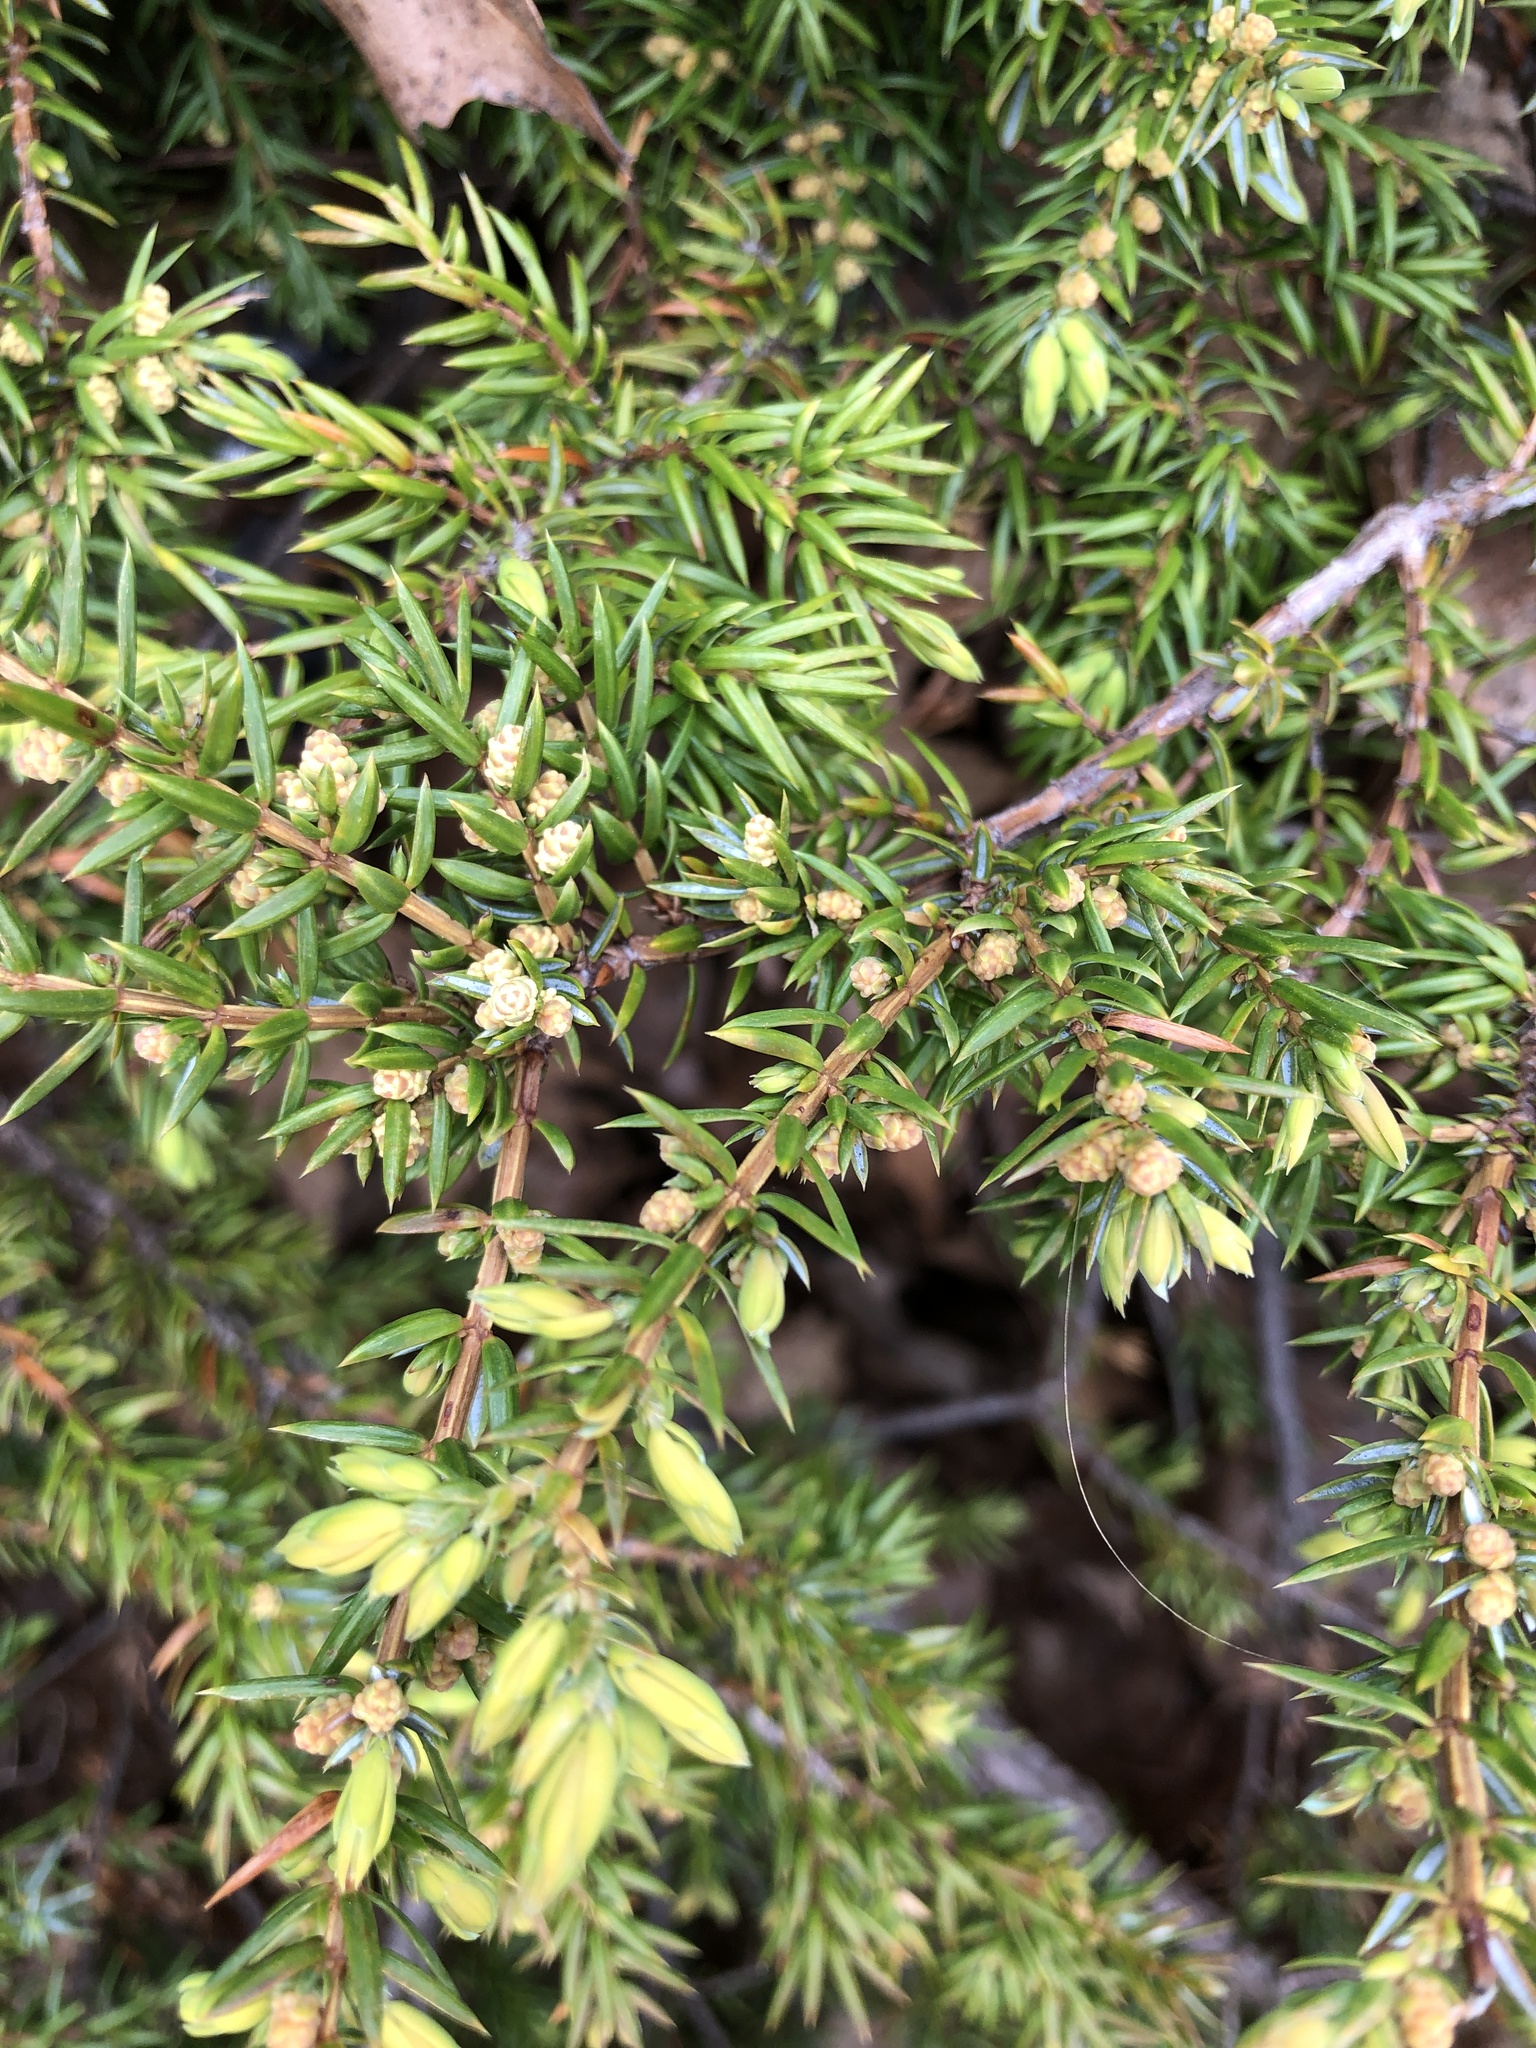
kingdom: Plantae
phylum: Tracheophyta
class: Pinopsida
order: Pinales
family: Cupressaceae
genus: Juniperus
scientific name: Juniperus communis
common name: Common juniper
